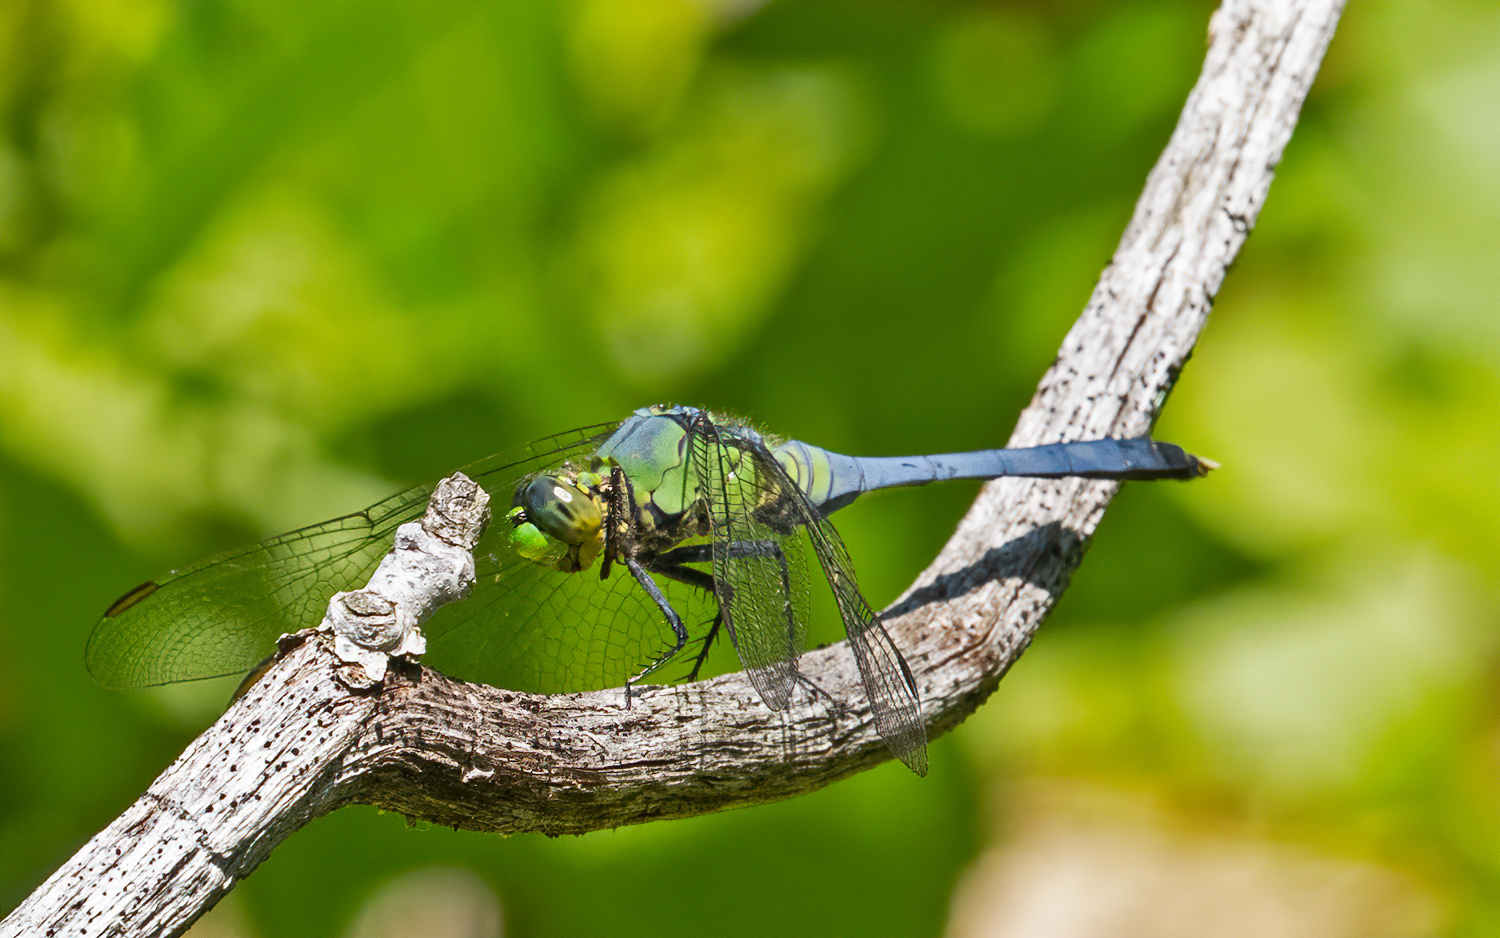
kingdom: Animalia
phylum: Arthropoda
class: Insecta
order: Odonata
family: Libellulidae
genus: Erythemis
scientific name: Erythemis simplicicollis
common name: Eastern pondhawk
